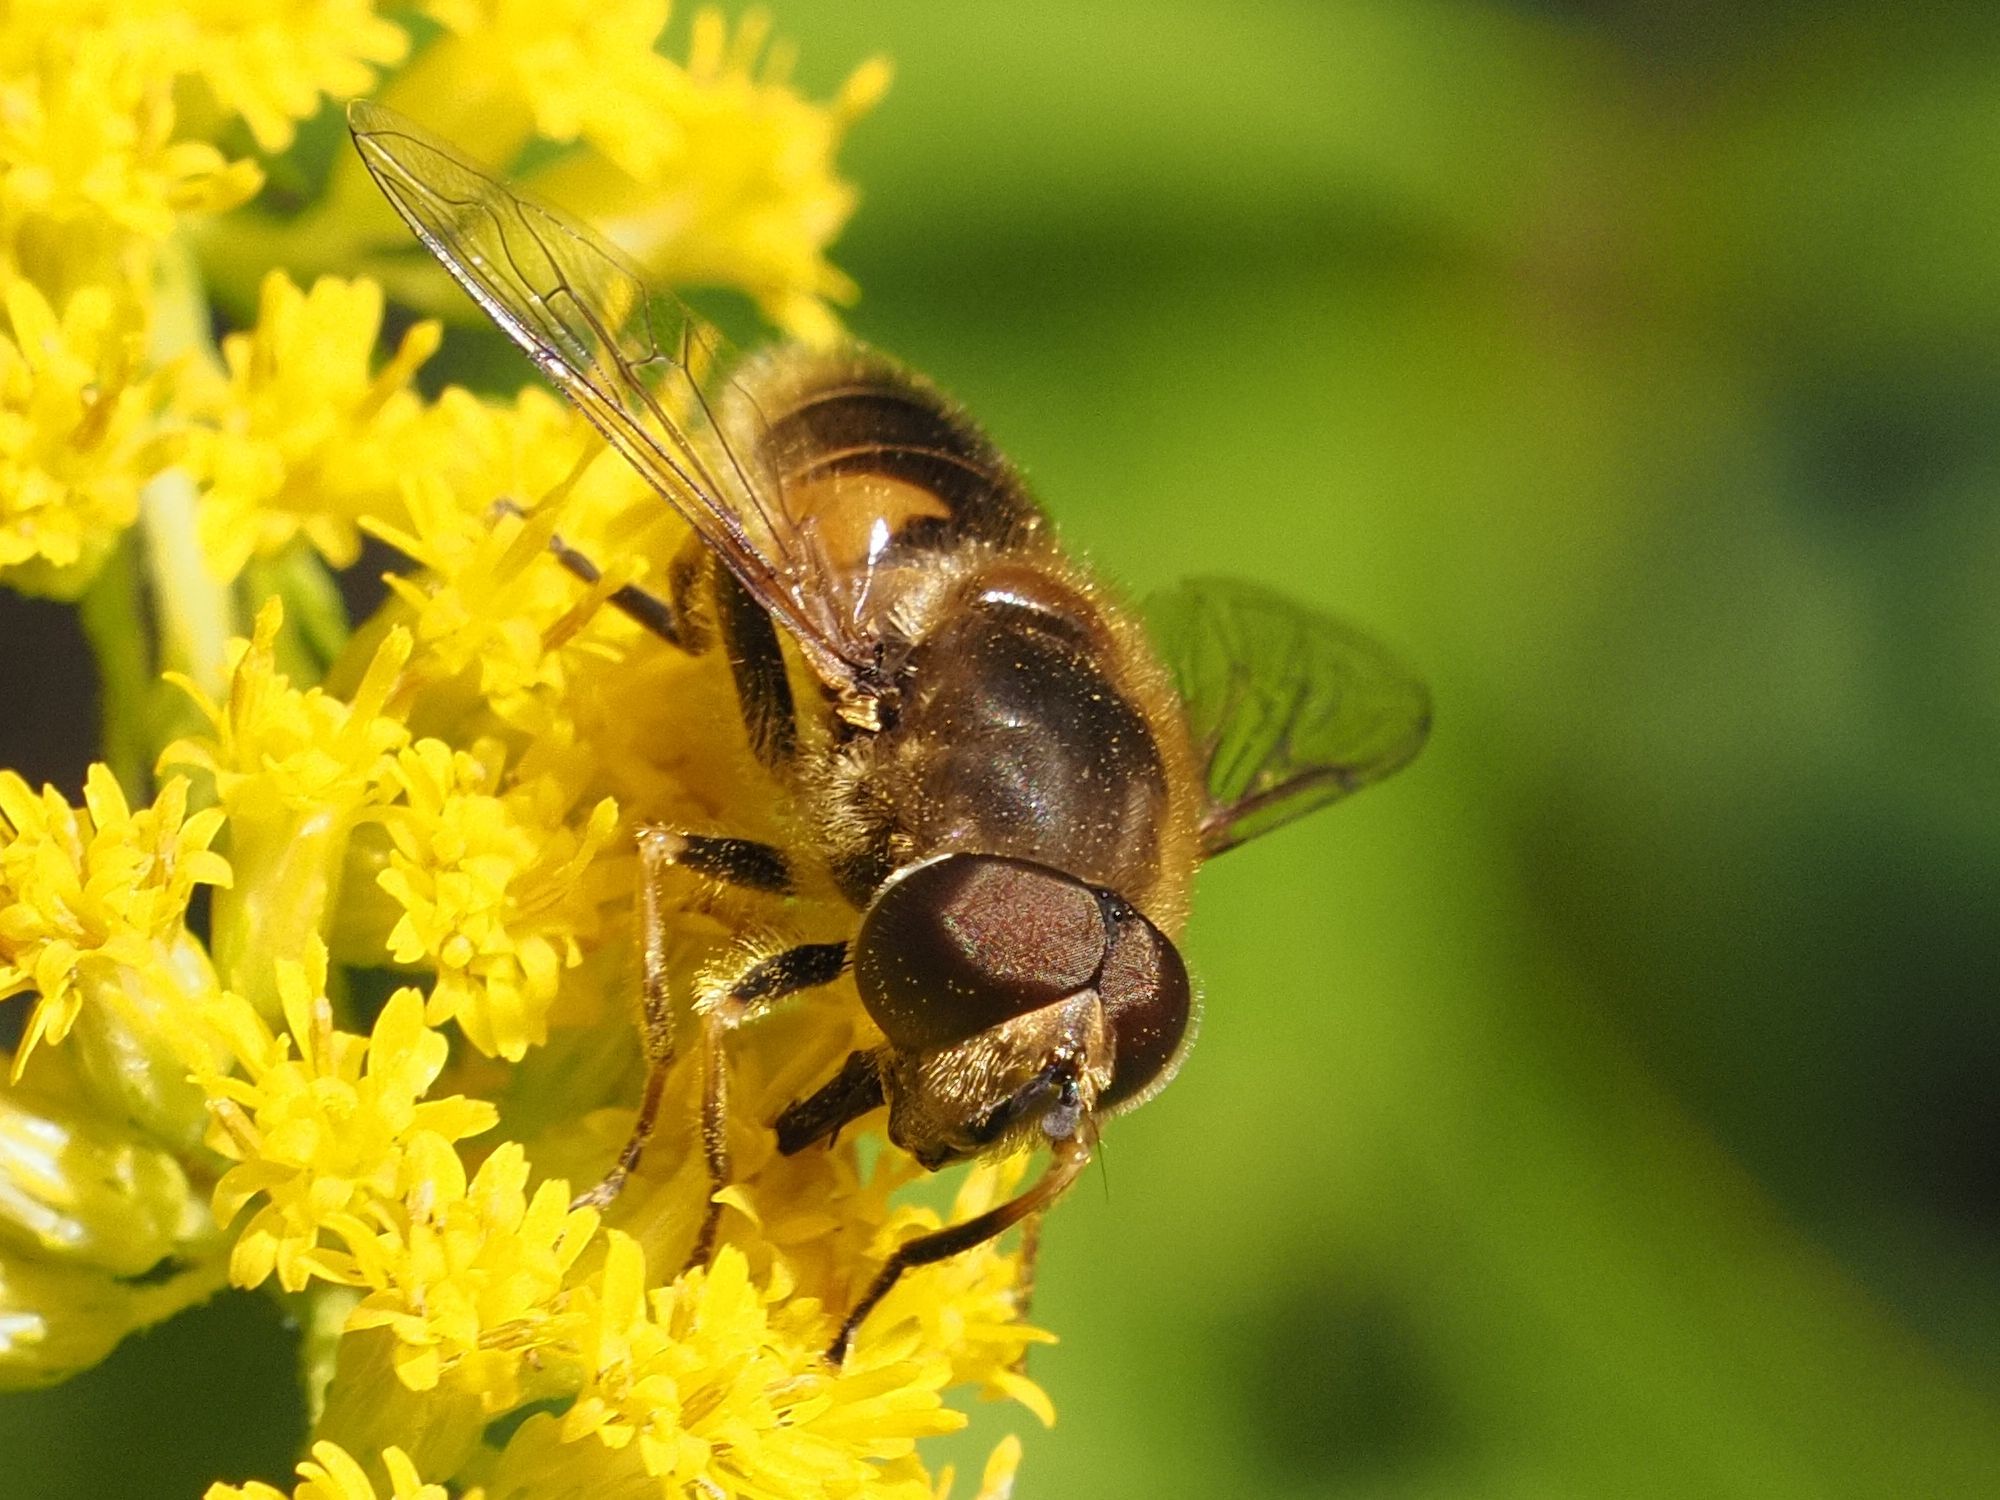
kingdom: Animalia
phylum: Arthropoda
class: Insecta
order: Diptera
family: Syrphidae
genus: Eristalis
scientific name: Eristalis nemorum
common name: Orange-spined drone fly
